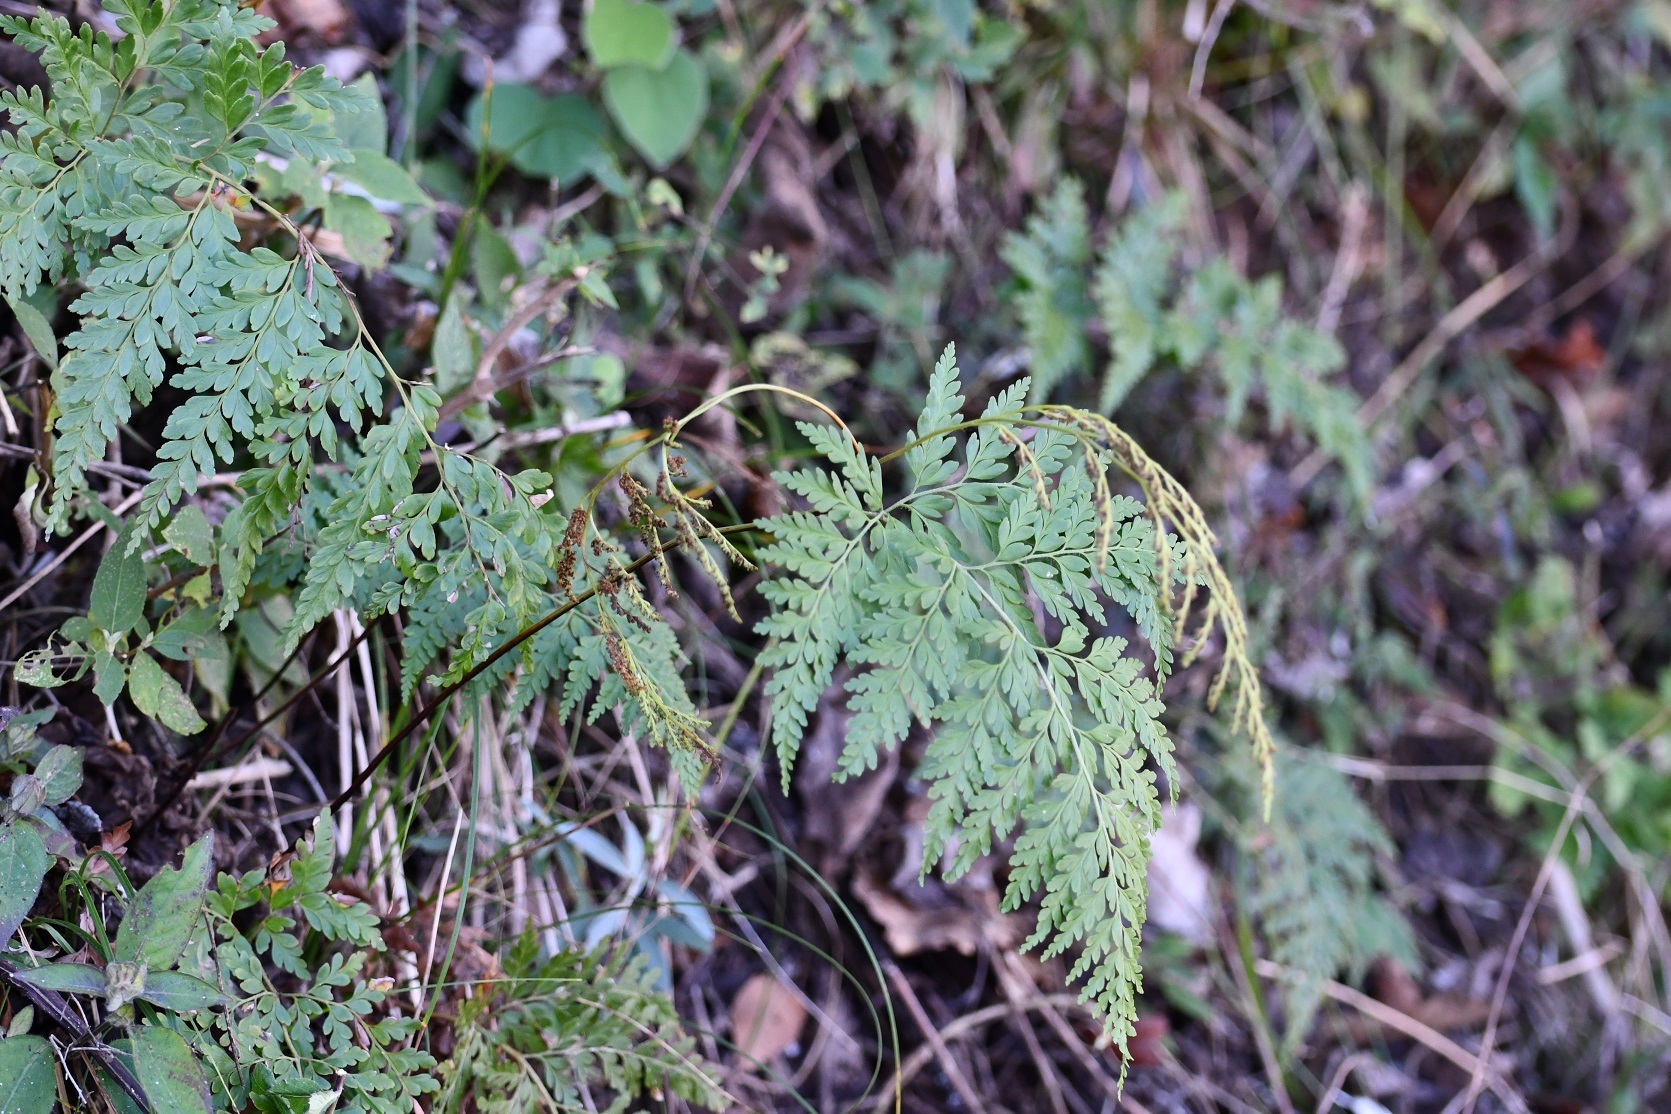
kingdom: Plantae
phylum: Tracheophyta
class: Polypodiopsida
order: Schizaeales
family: Anemiaceae
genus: Anemia
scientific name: Anemia adiantifolia
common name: Pine fern
